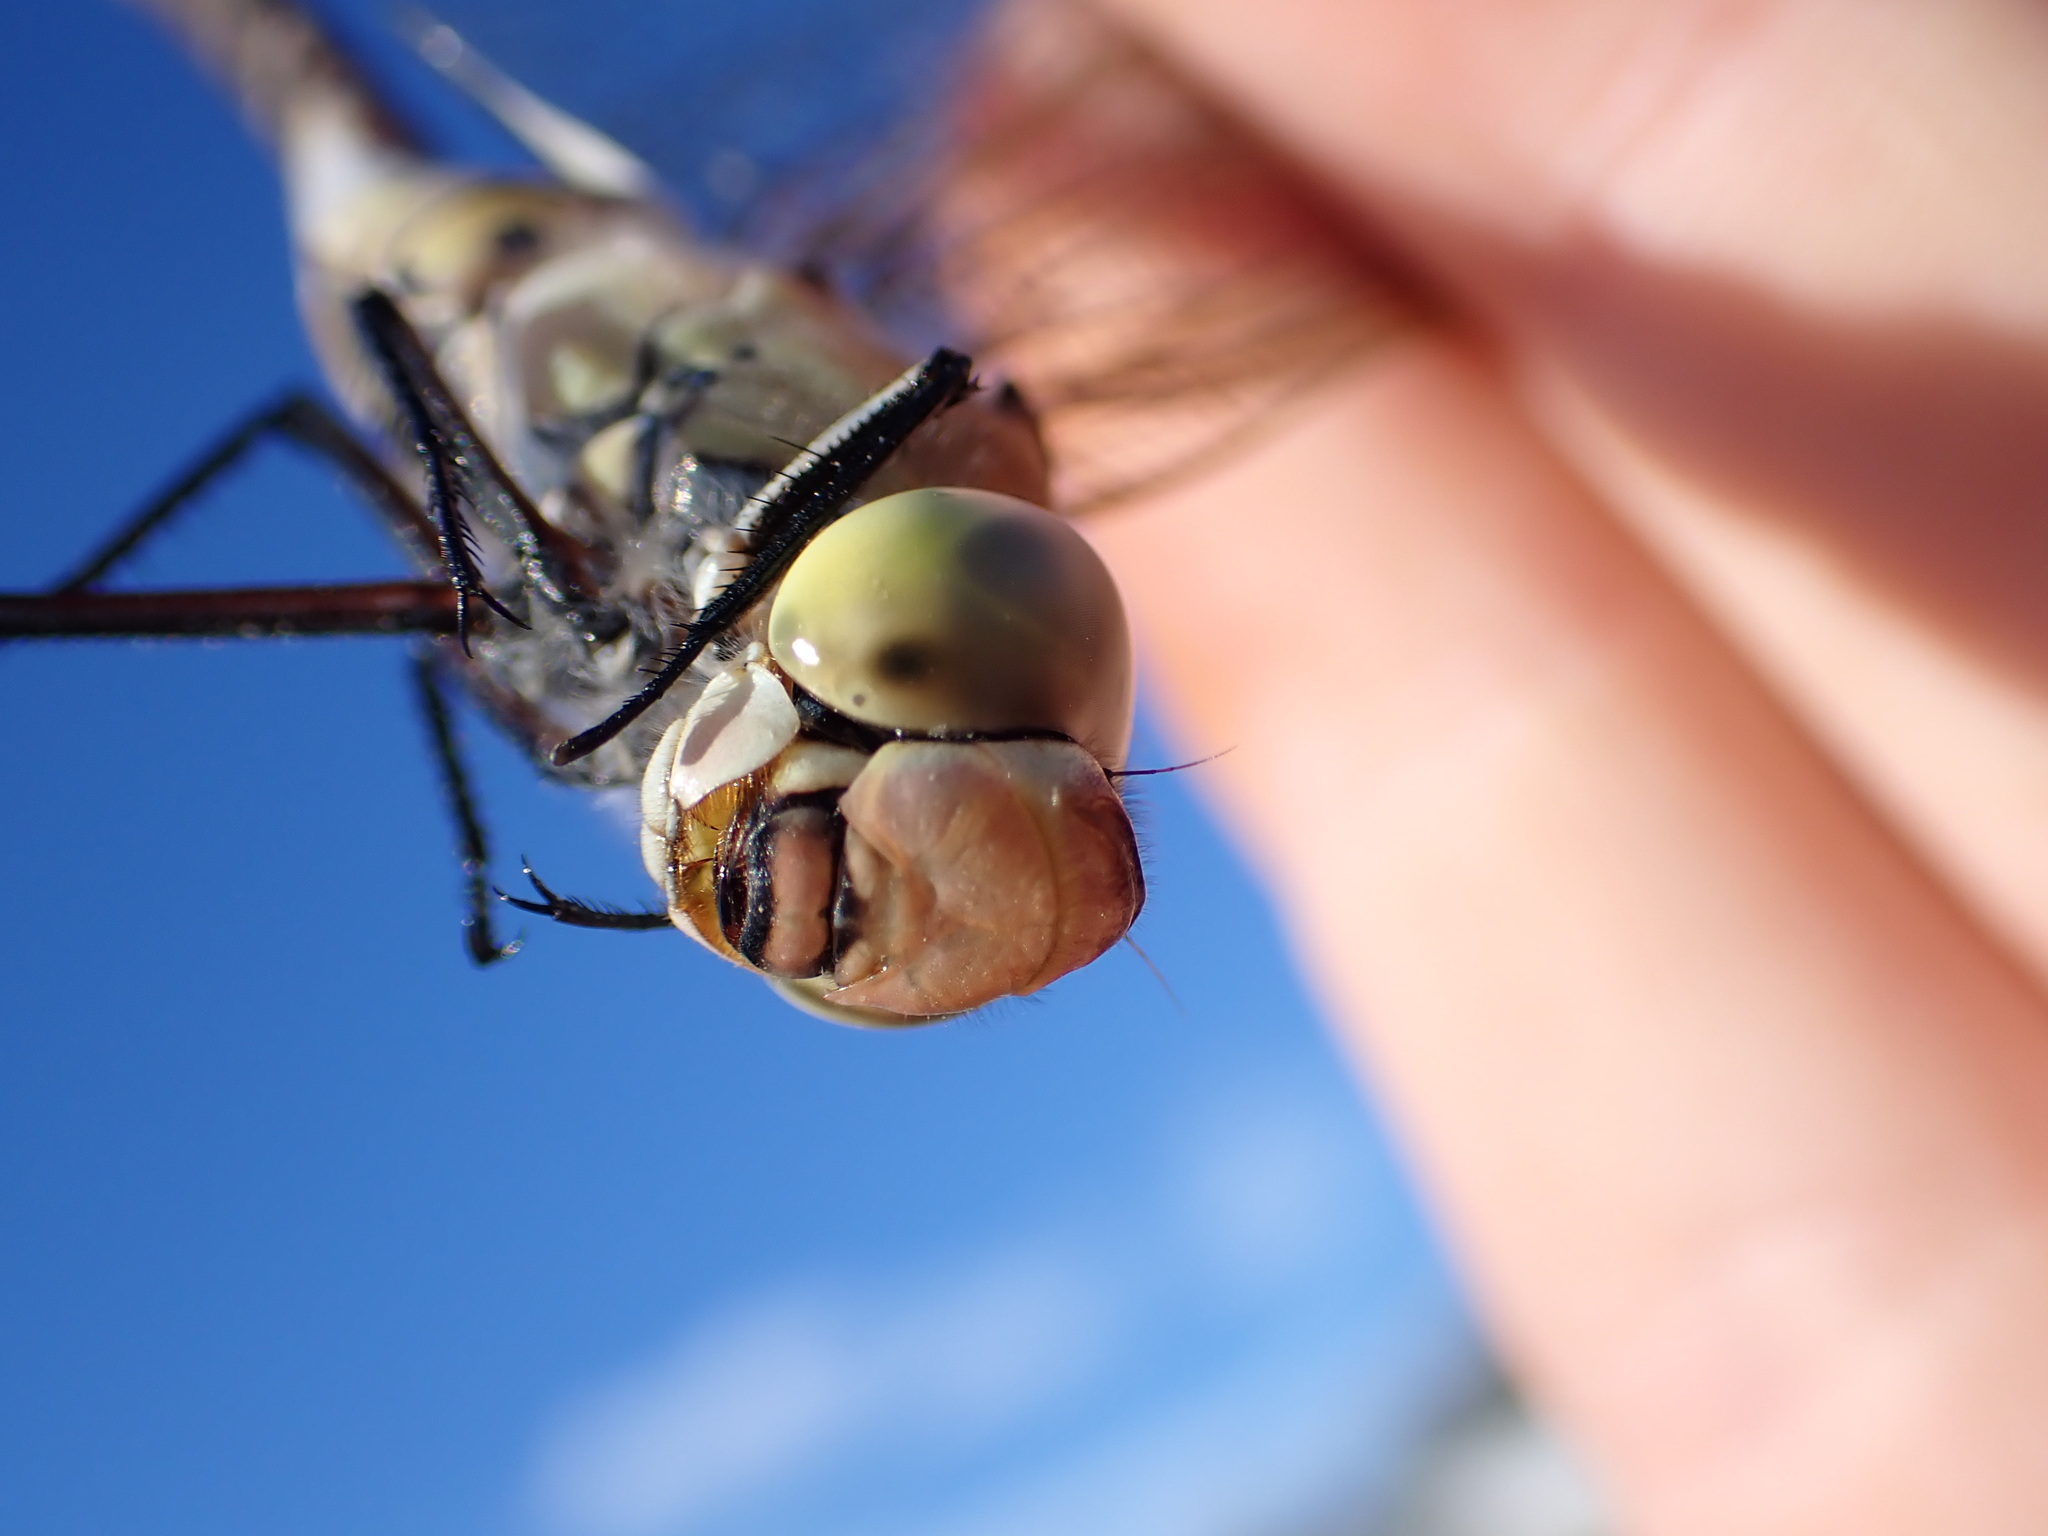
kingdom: Animalia
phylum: Arthropoda
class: Insecta
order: Odonata
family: Aeshnidae
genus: Anax
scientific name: Anax parthenope
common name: Lesser emperor
